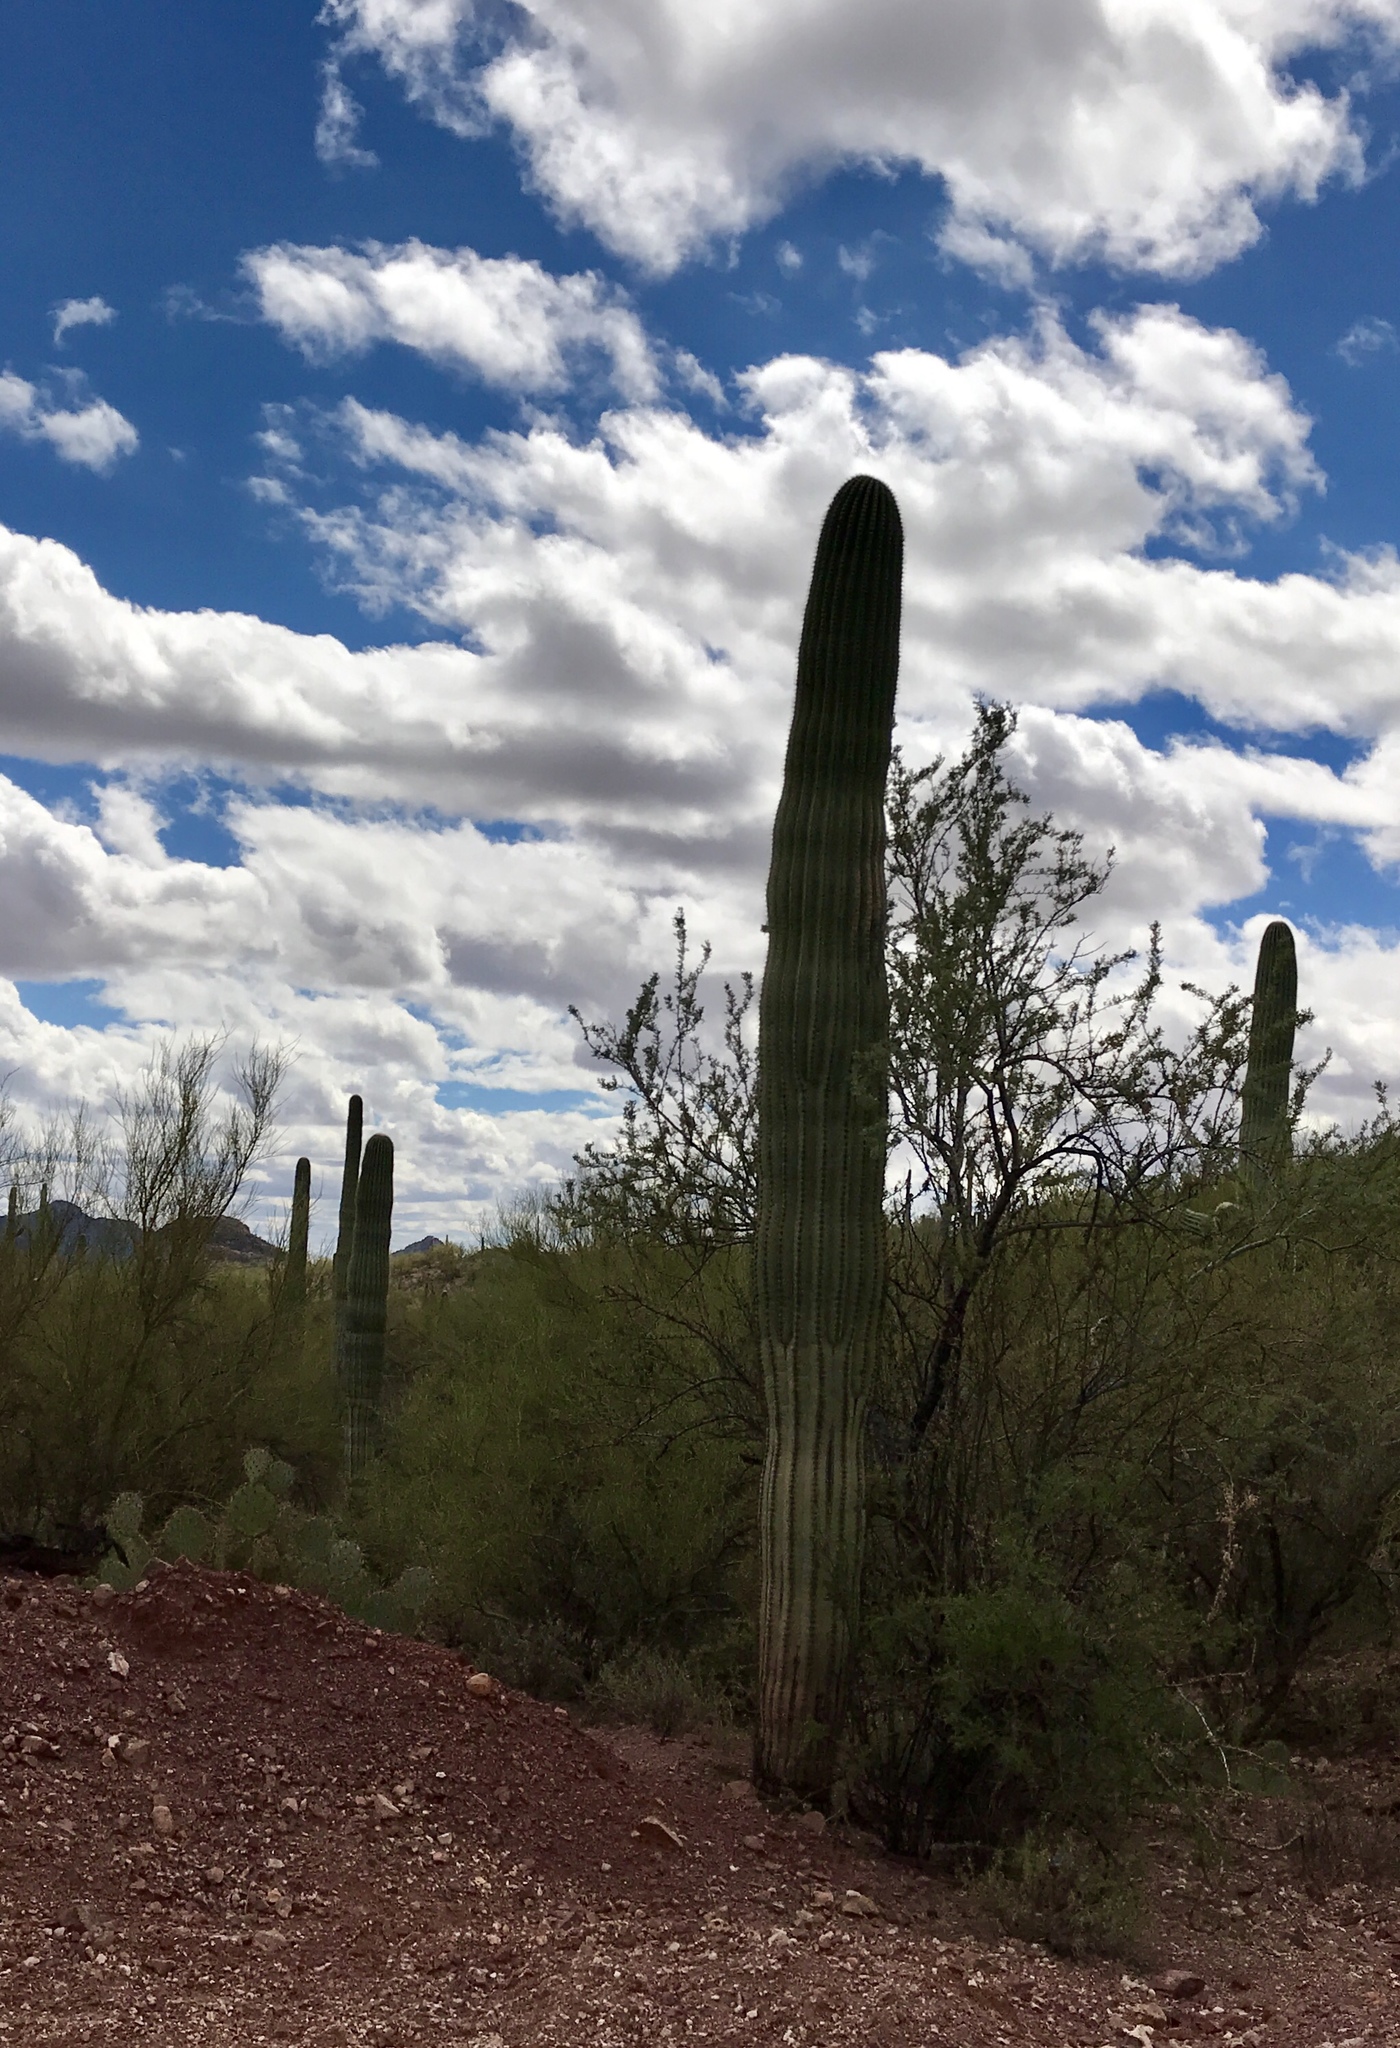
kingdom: Plantae
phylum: Tracheophyta
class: Magnoliopsida
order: Caryophyllales
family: Cactaceae
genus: Carnegiea
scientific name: Carnegiea gigantea
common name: Saguaro
